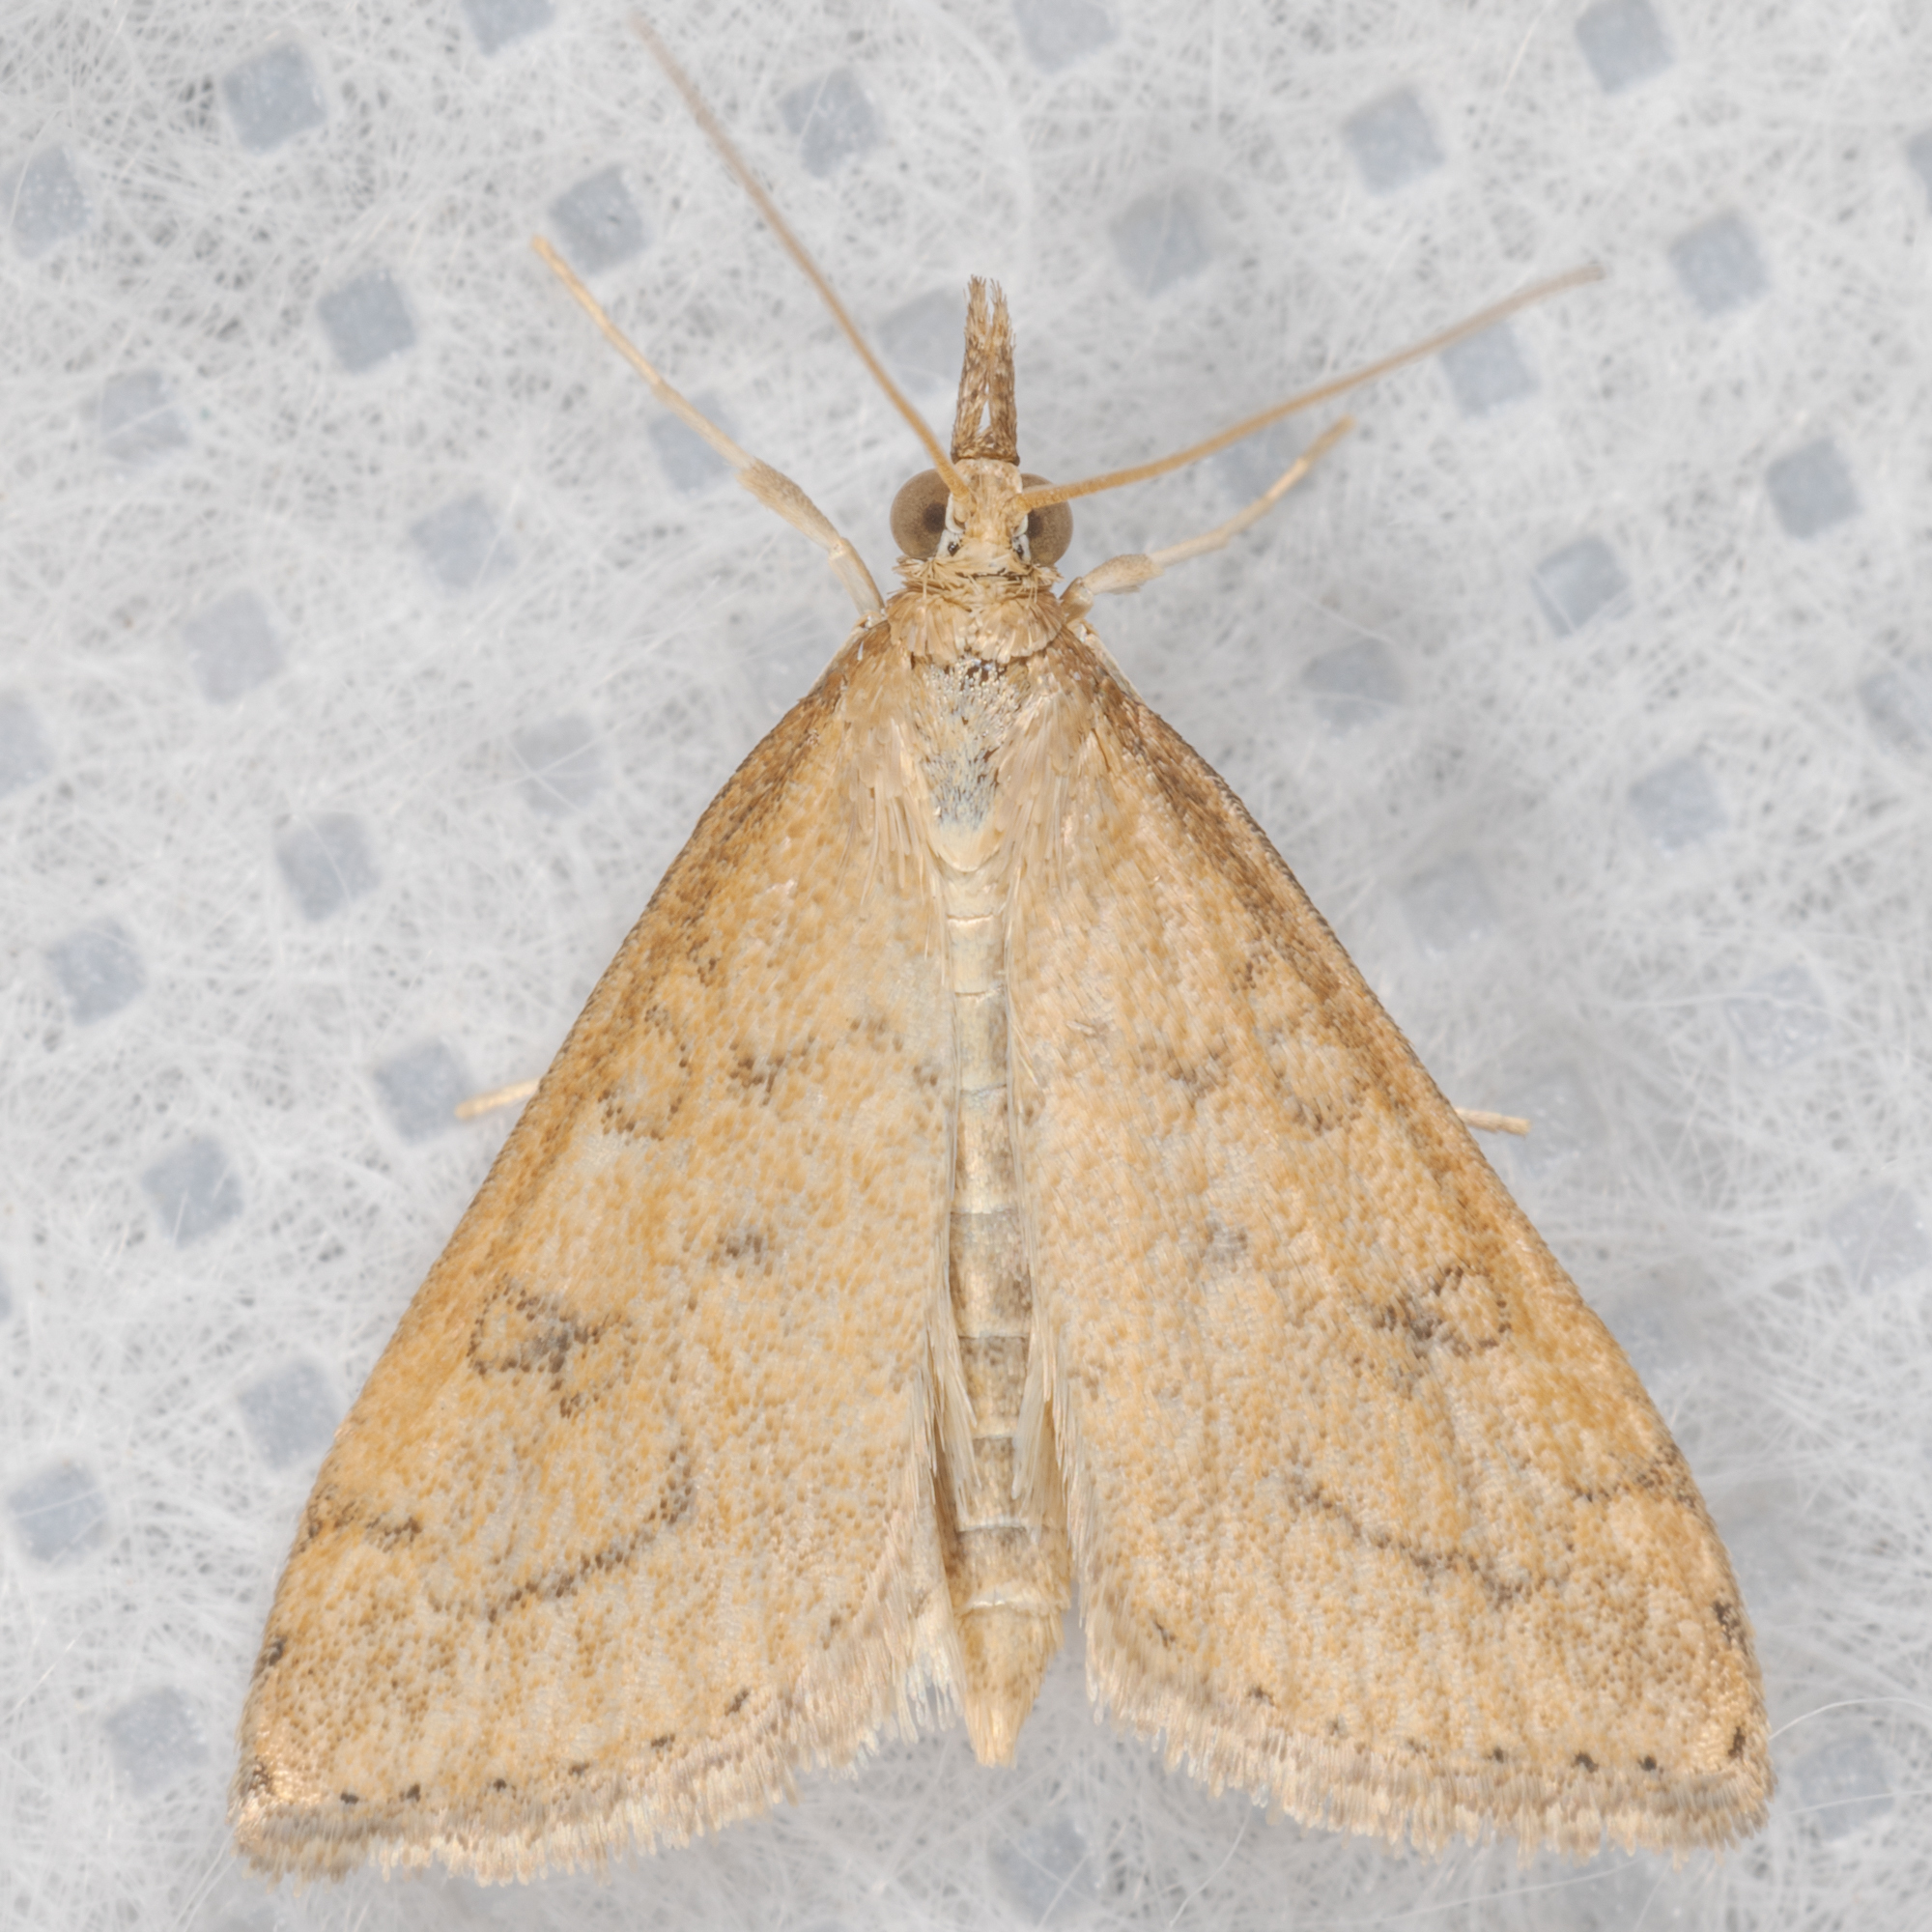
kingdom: Animalia
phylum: Arthropoda
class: Insecta
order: Lepidoptera
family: Crambidae
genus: Udea
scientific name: Udea rubigalis
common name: Celery leaftier moth
